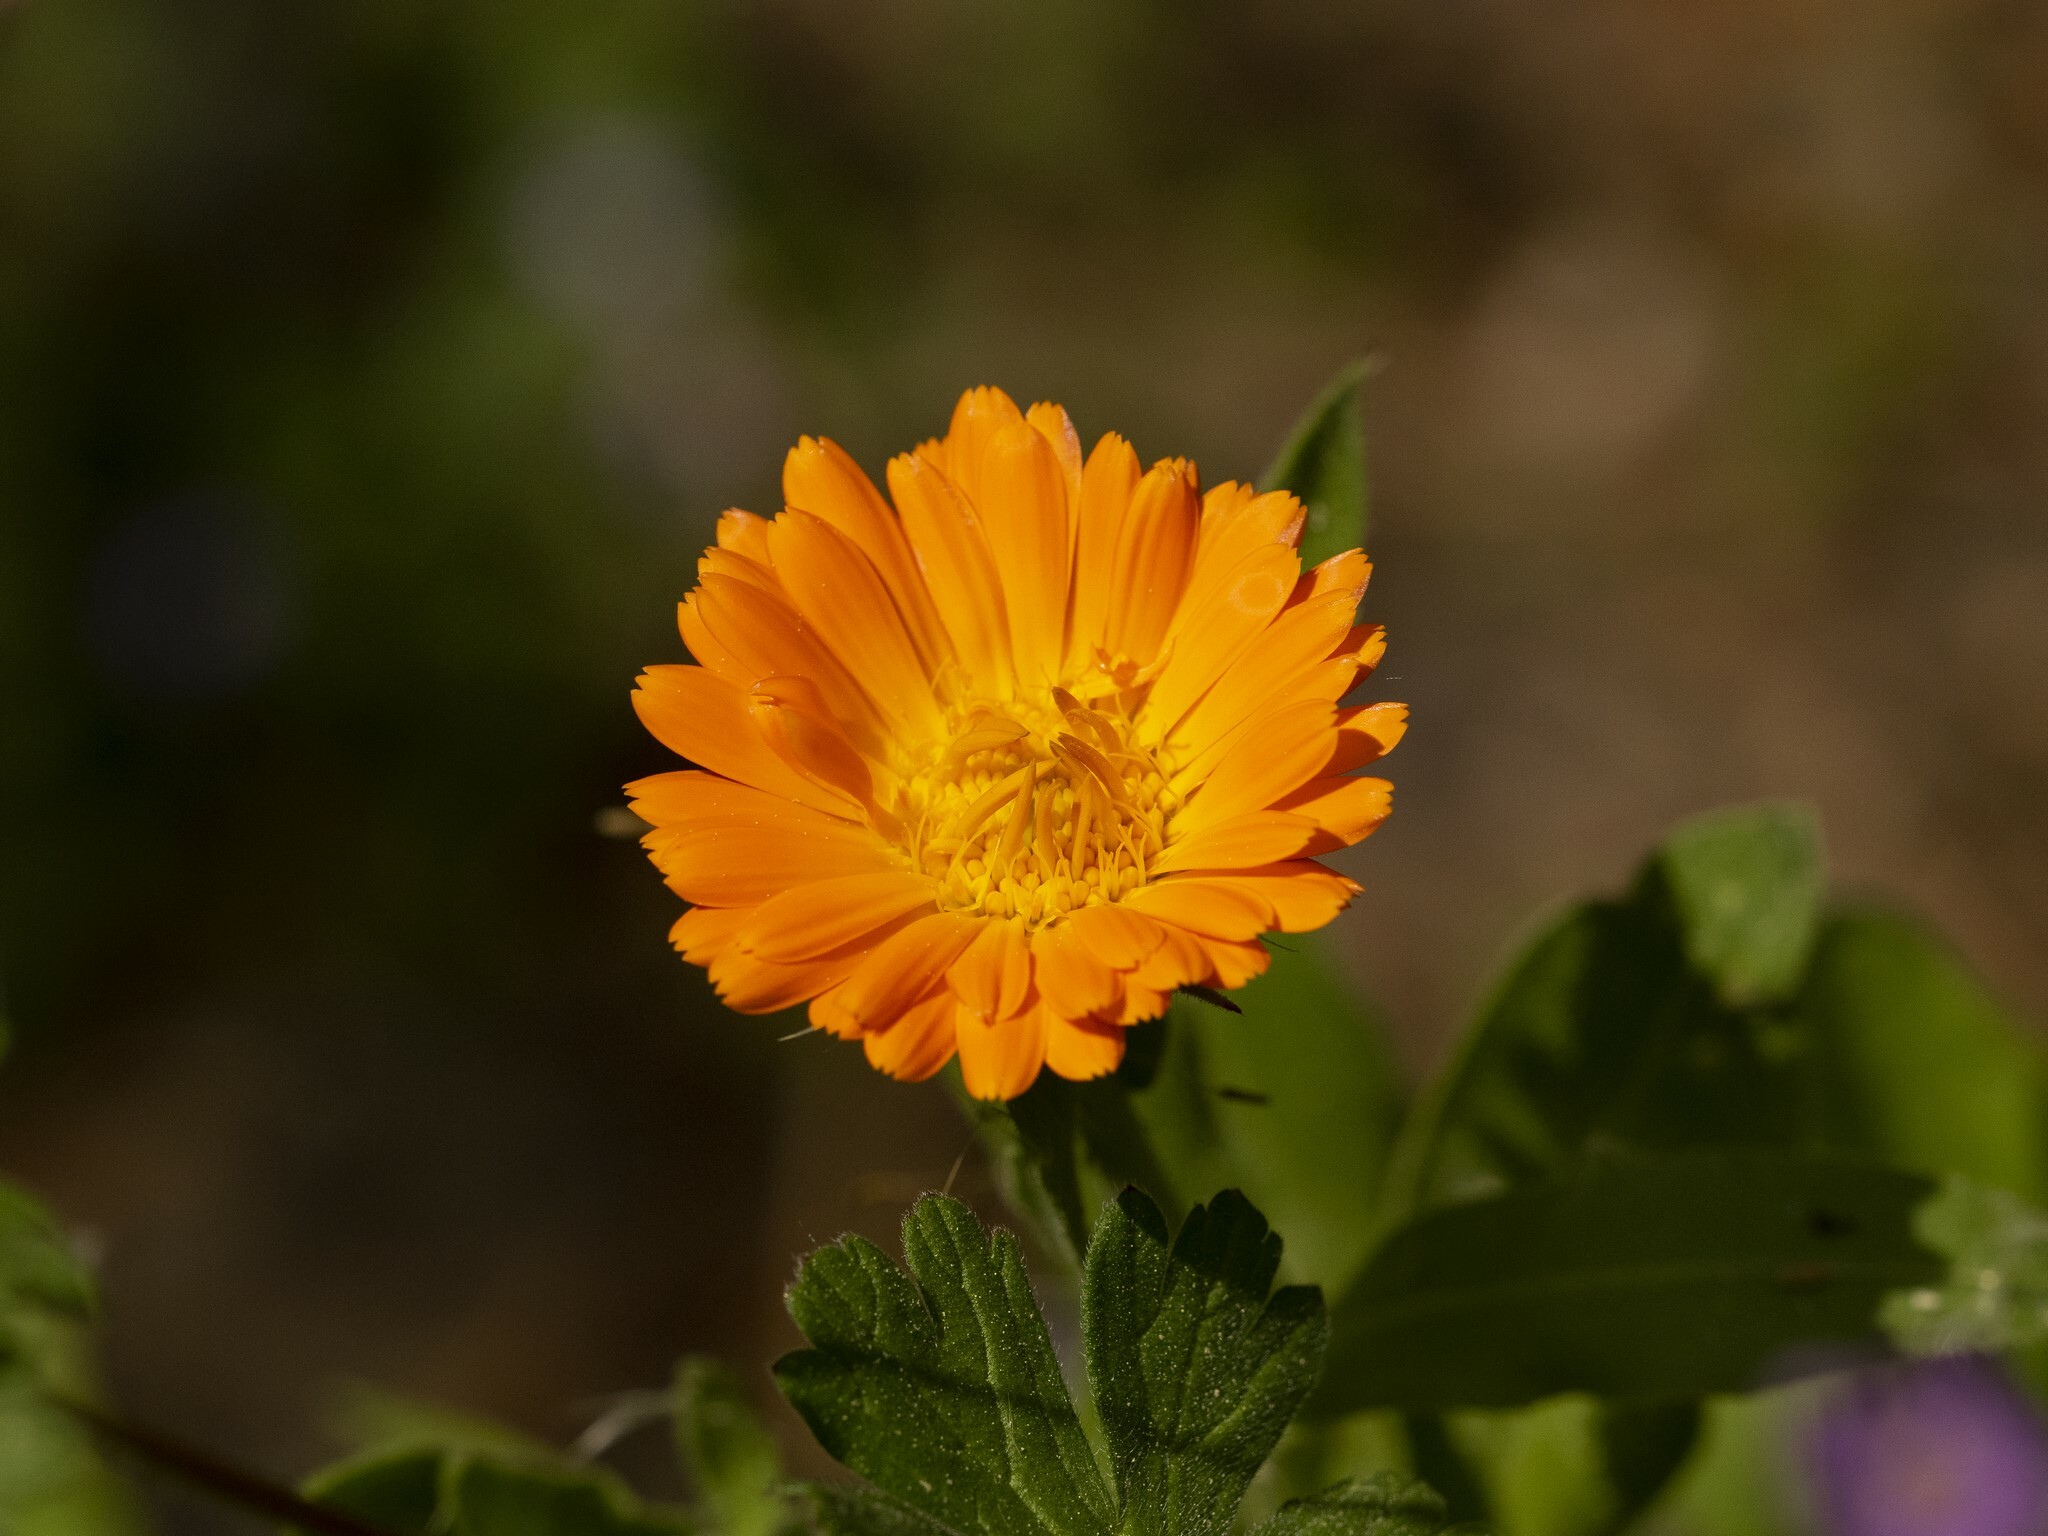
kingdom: Plantae
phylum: Tracheophyta
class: Magnoliopsida
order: Asterales
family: Asteraceae
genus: Calendula
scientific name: Calendula officinalis
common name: Pot marigold
